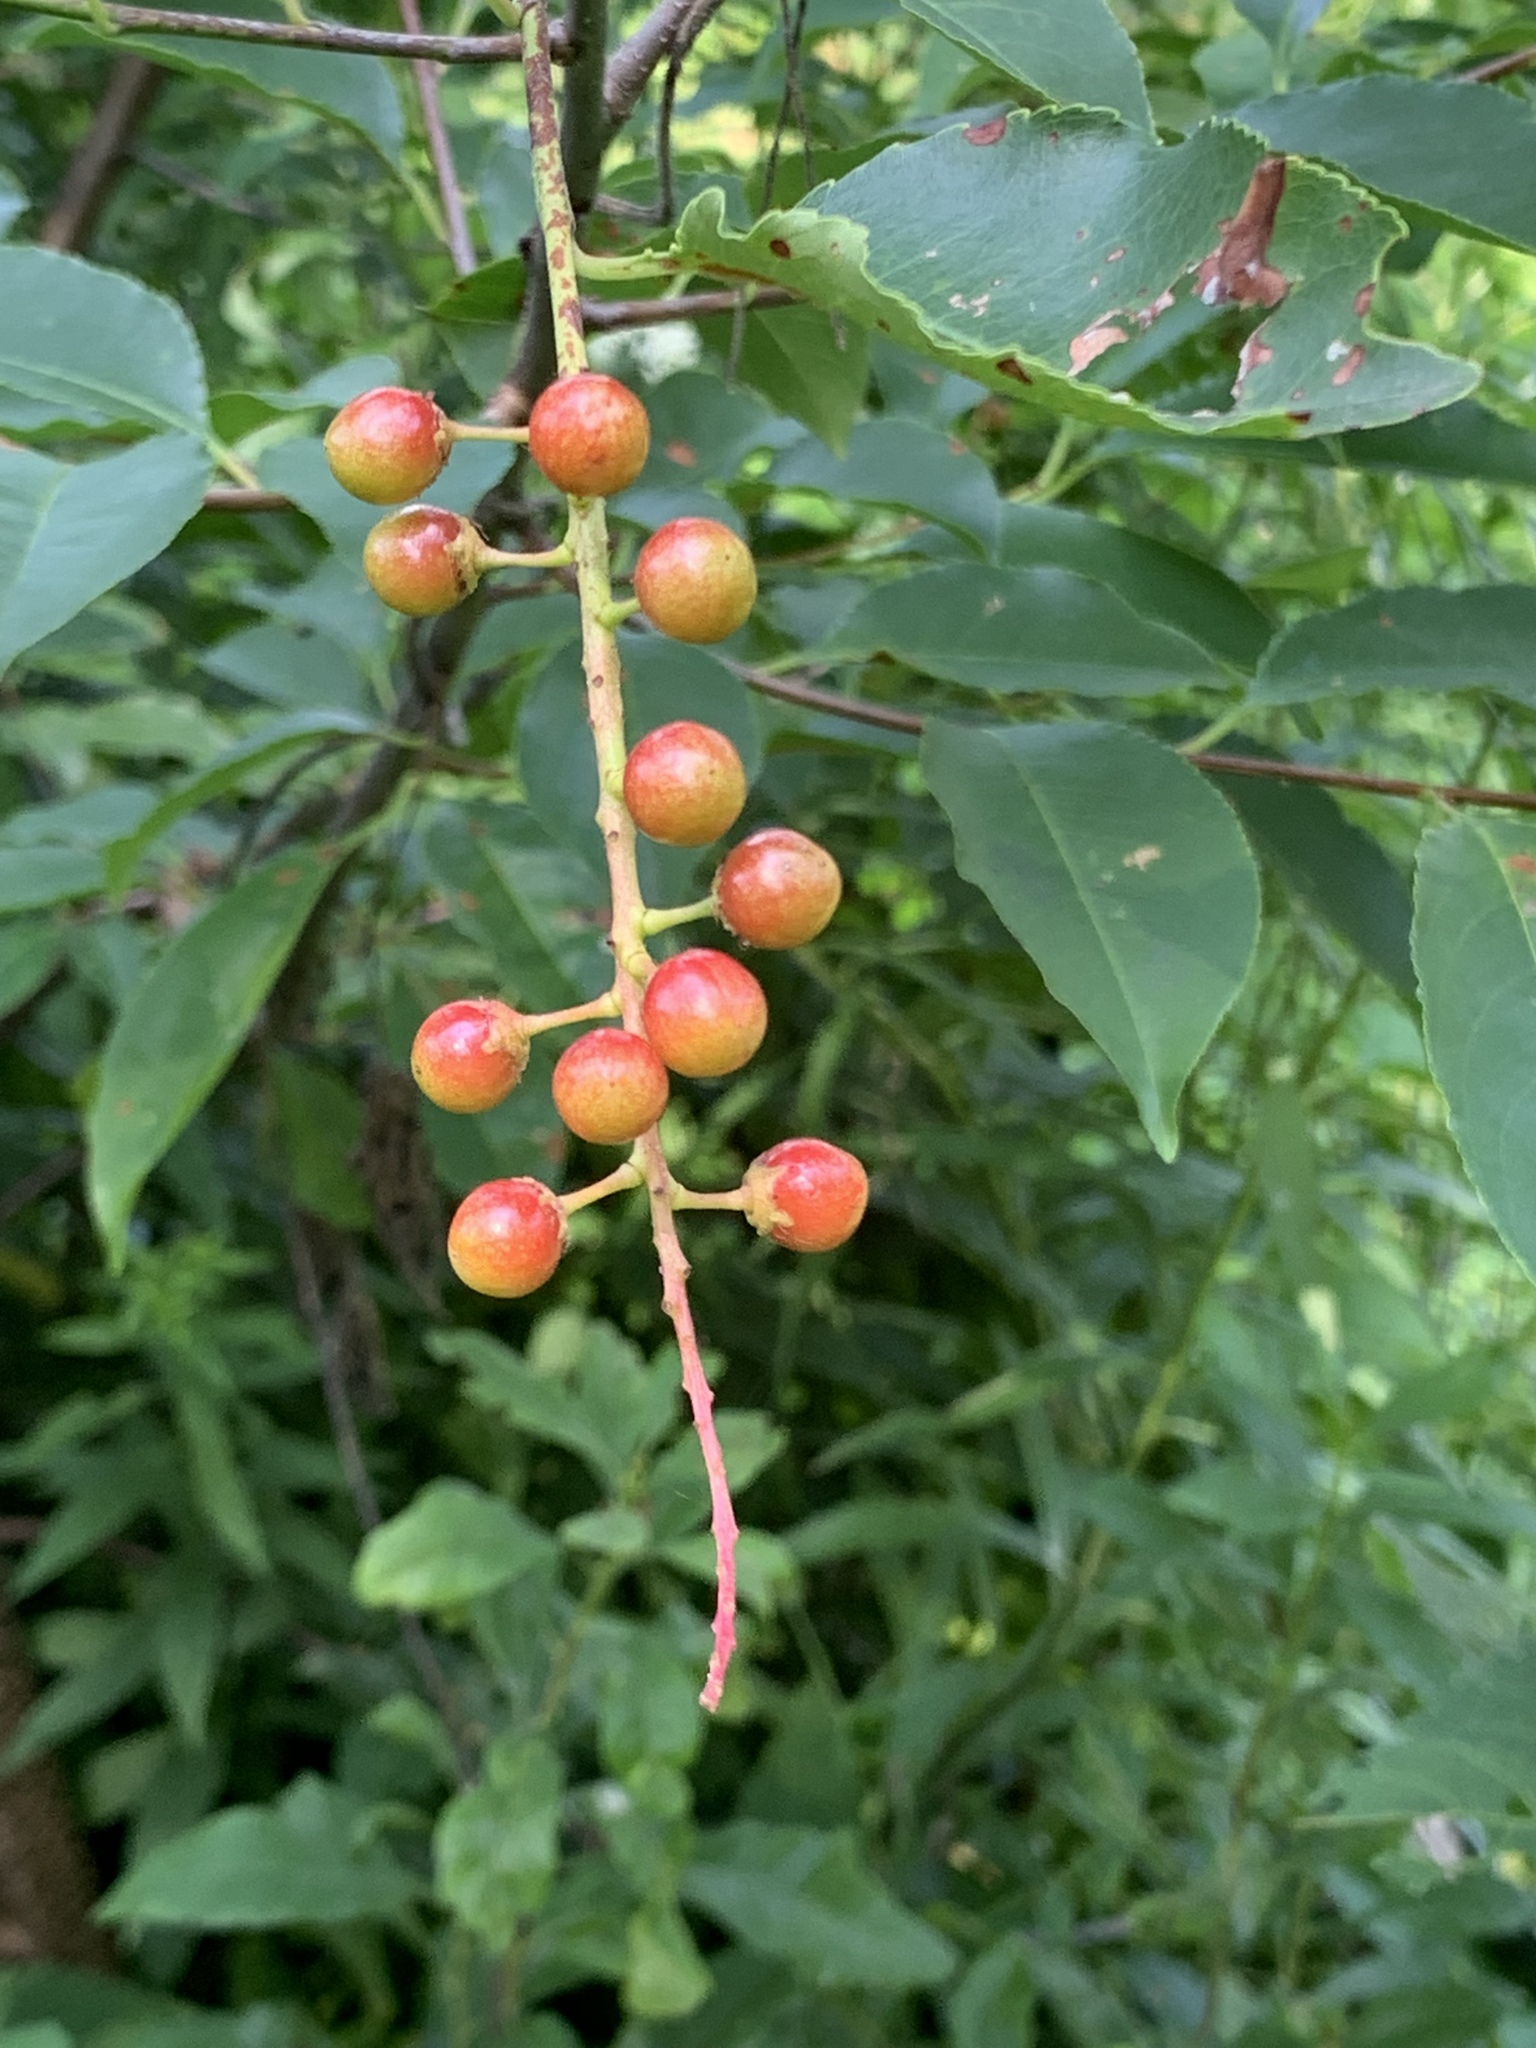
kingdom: Plantae
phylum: Tracheophyta
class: Magnoliopsida
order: Rosales
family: Rosaceae
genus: Prunus
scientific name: Prunus serotina
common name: Black cherry
